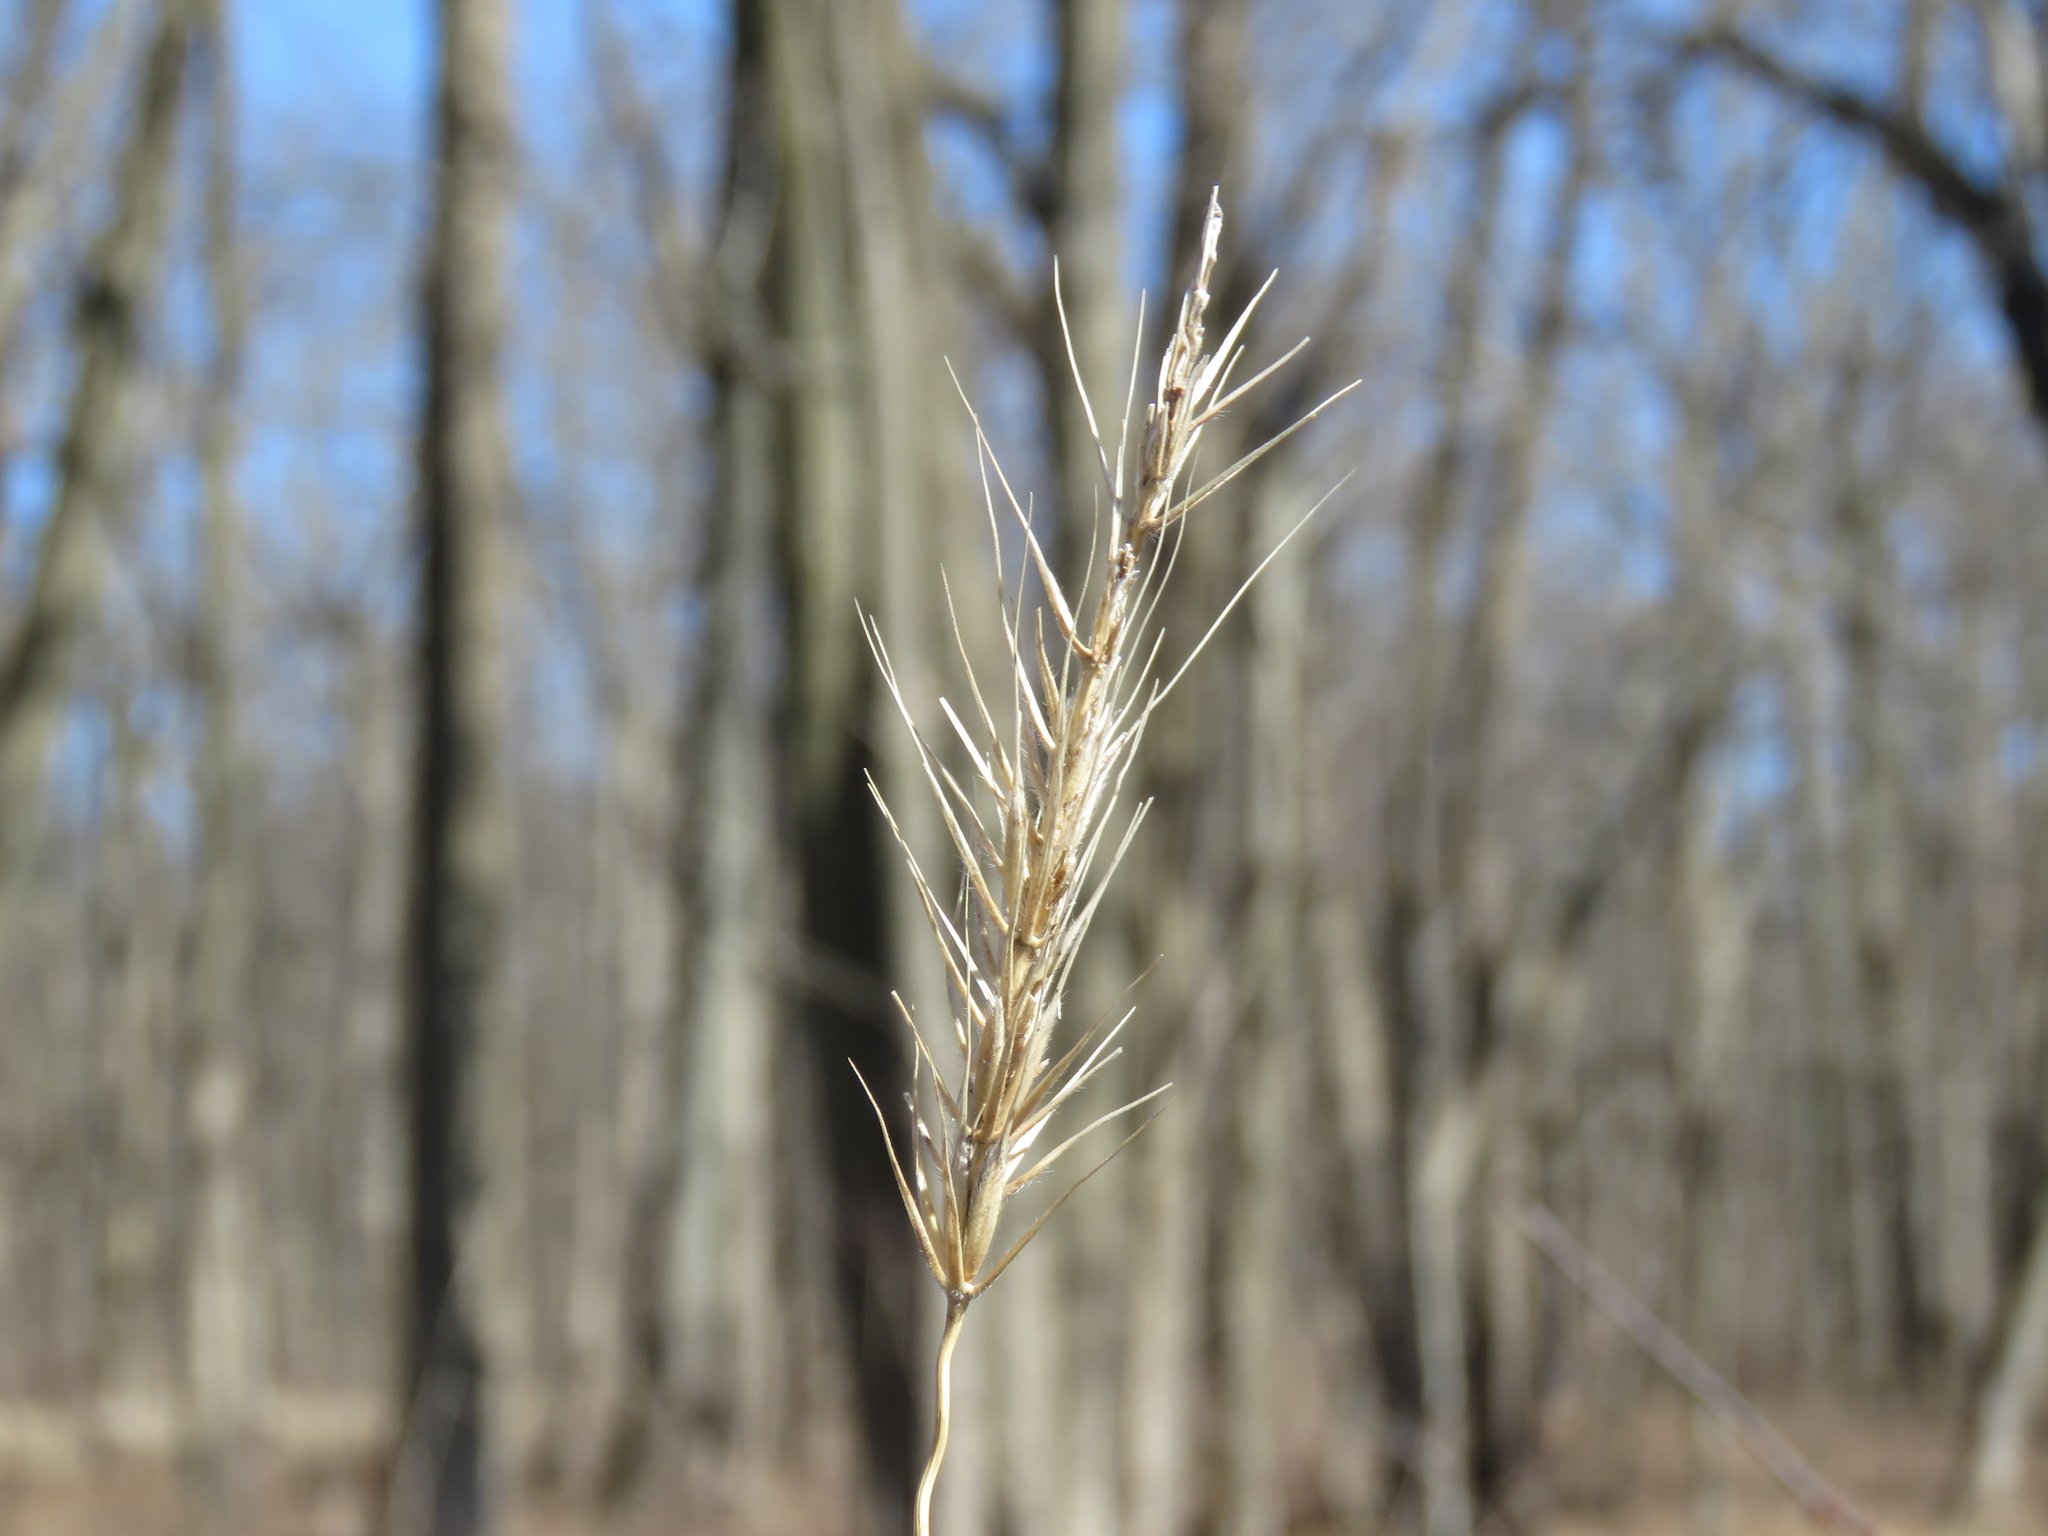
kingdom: Plantae
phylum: Tracheophyta
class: Liliopsida
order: Poales
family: Poaceae
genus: Elymus
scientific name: Elymus villosus
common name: Downy wild rye
